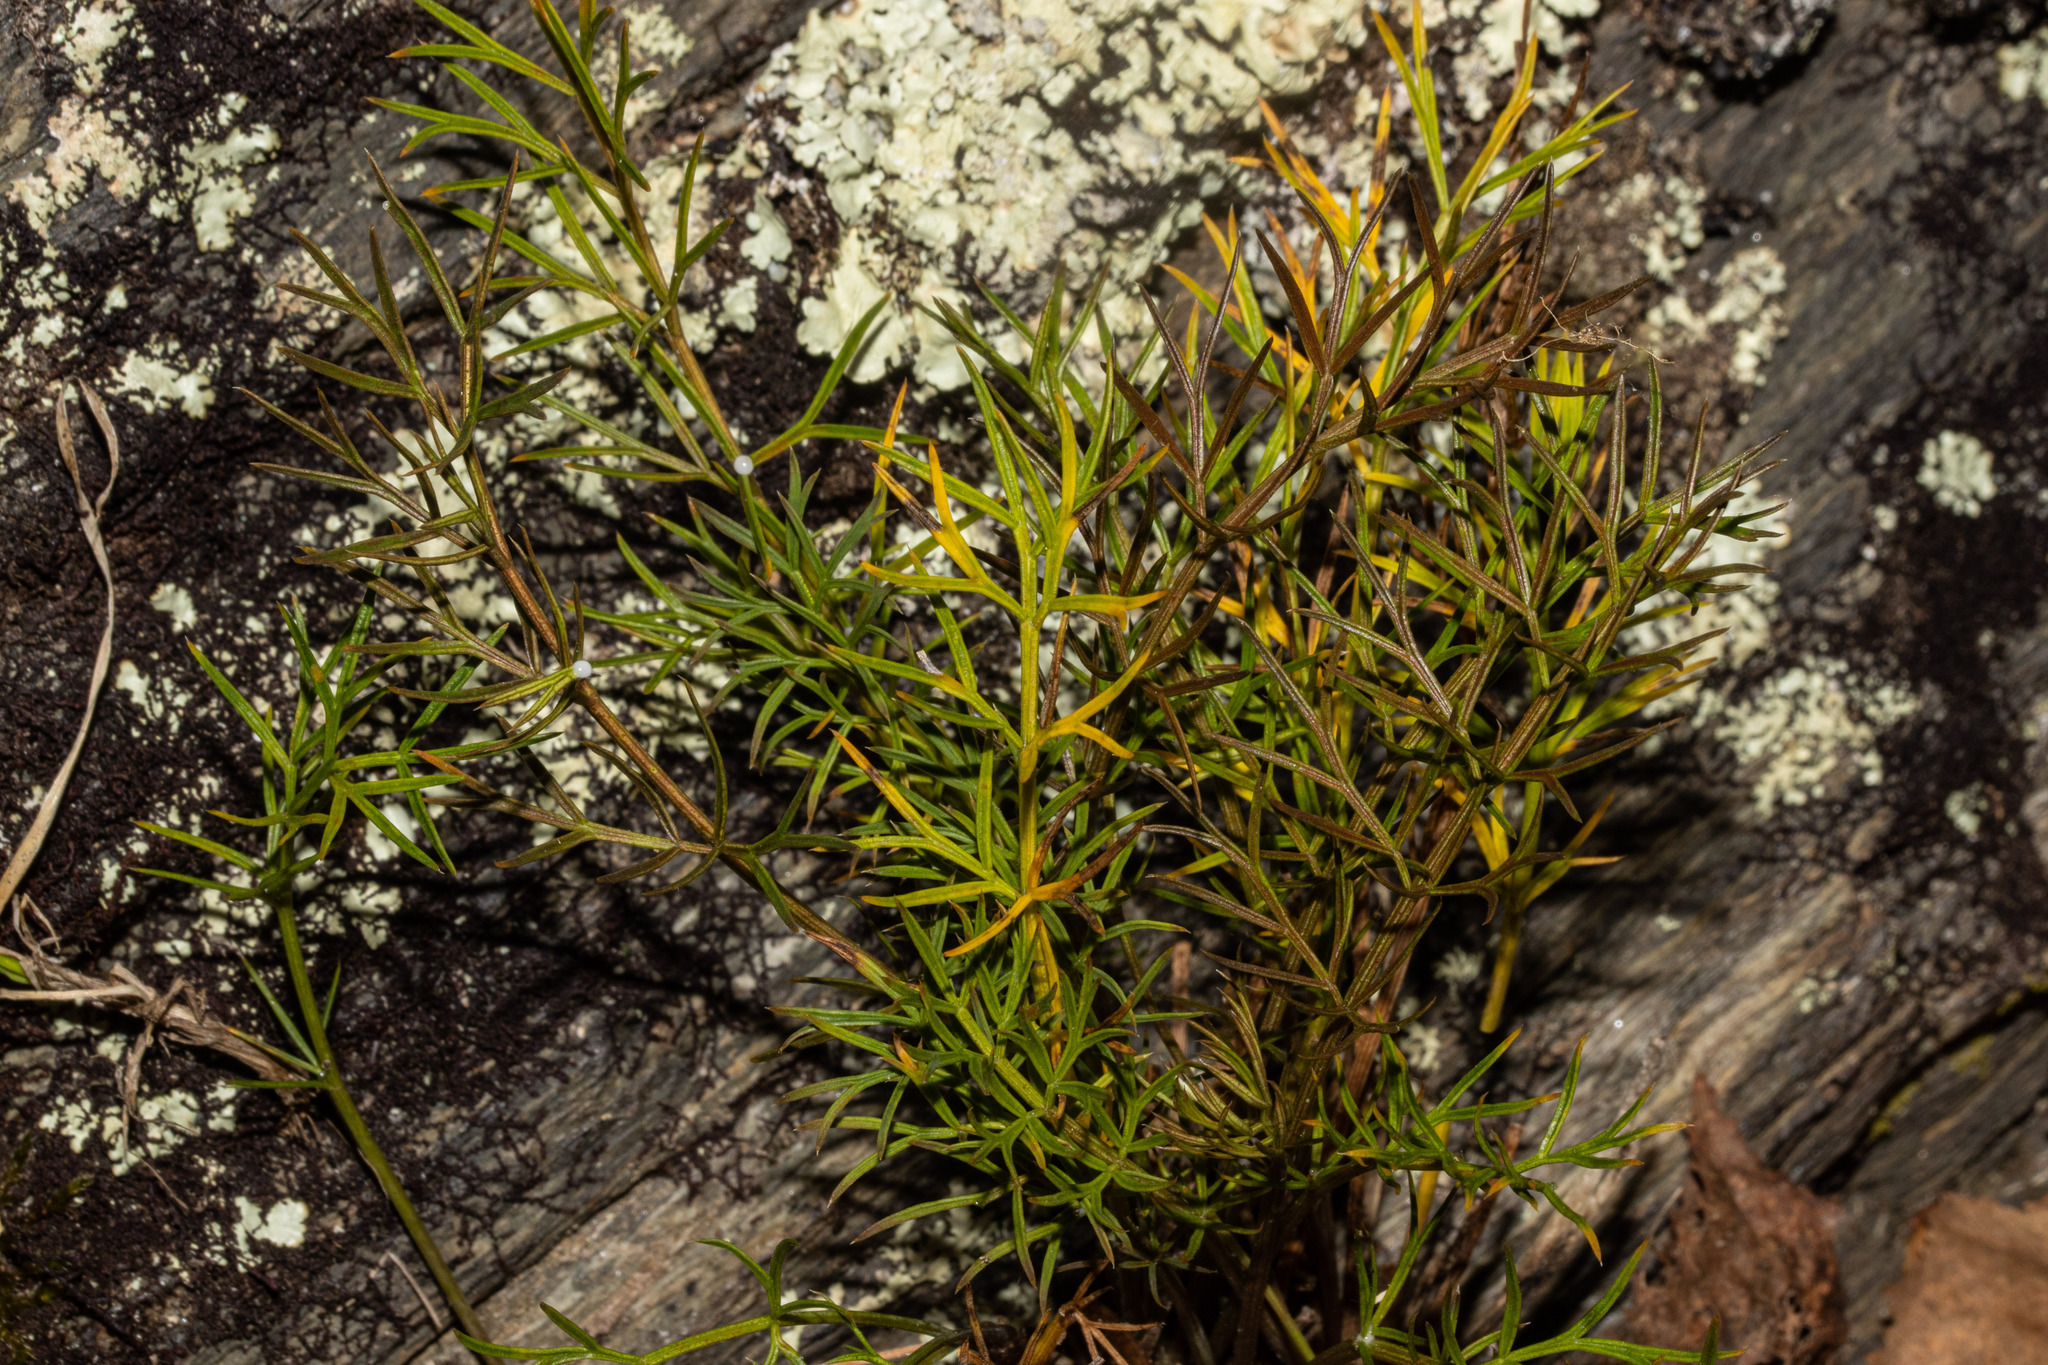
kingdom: Plantae
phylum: Tracheophyta
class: Magnoliopsida
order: Apiales
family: Apiaceae
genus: Anisotome
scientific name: Anisotome brevistylis
